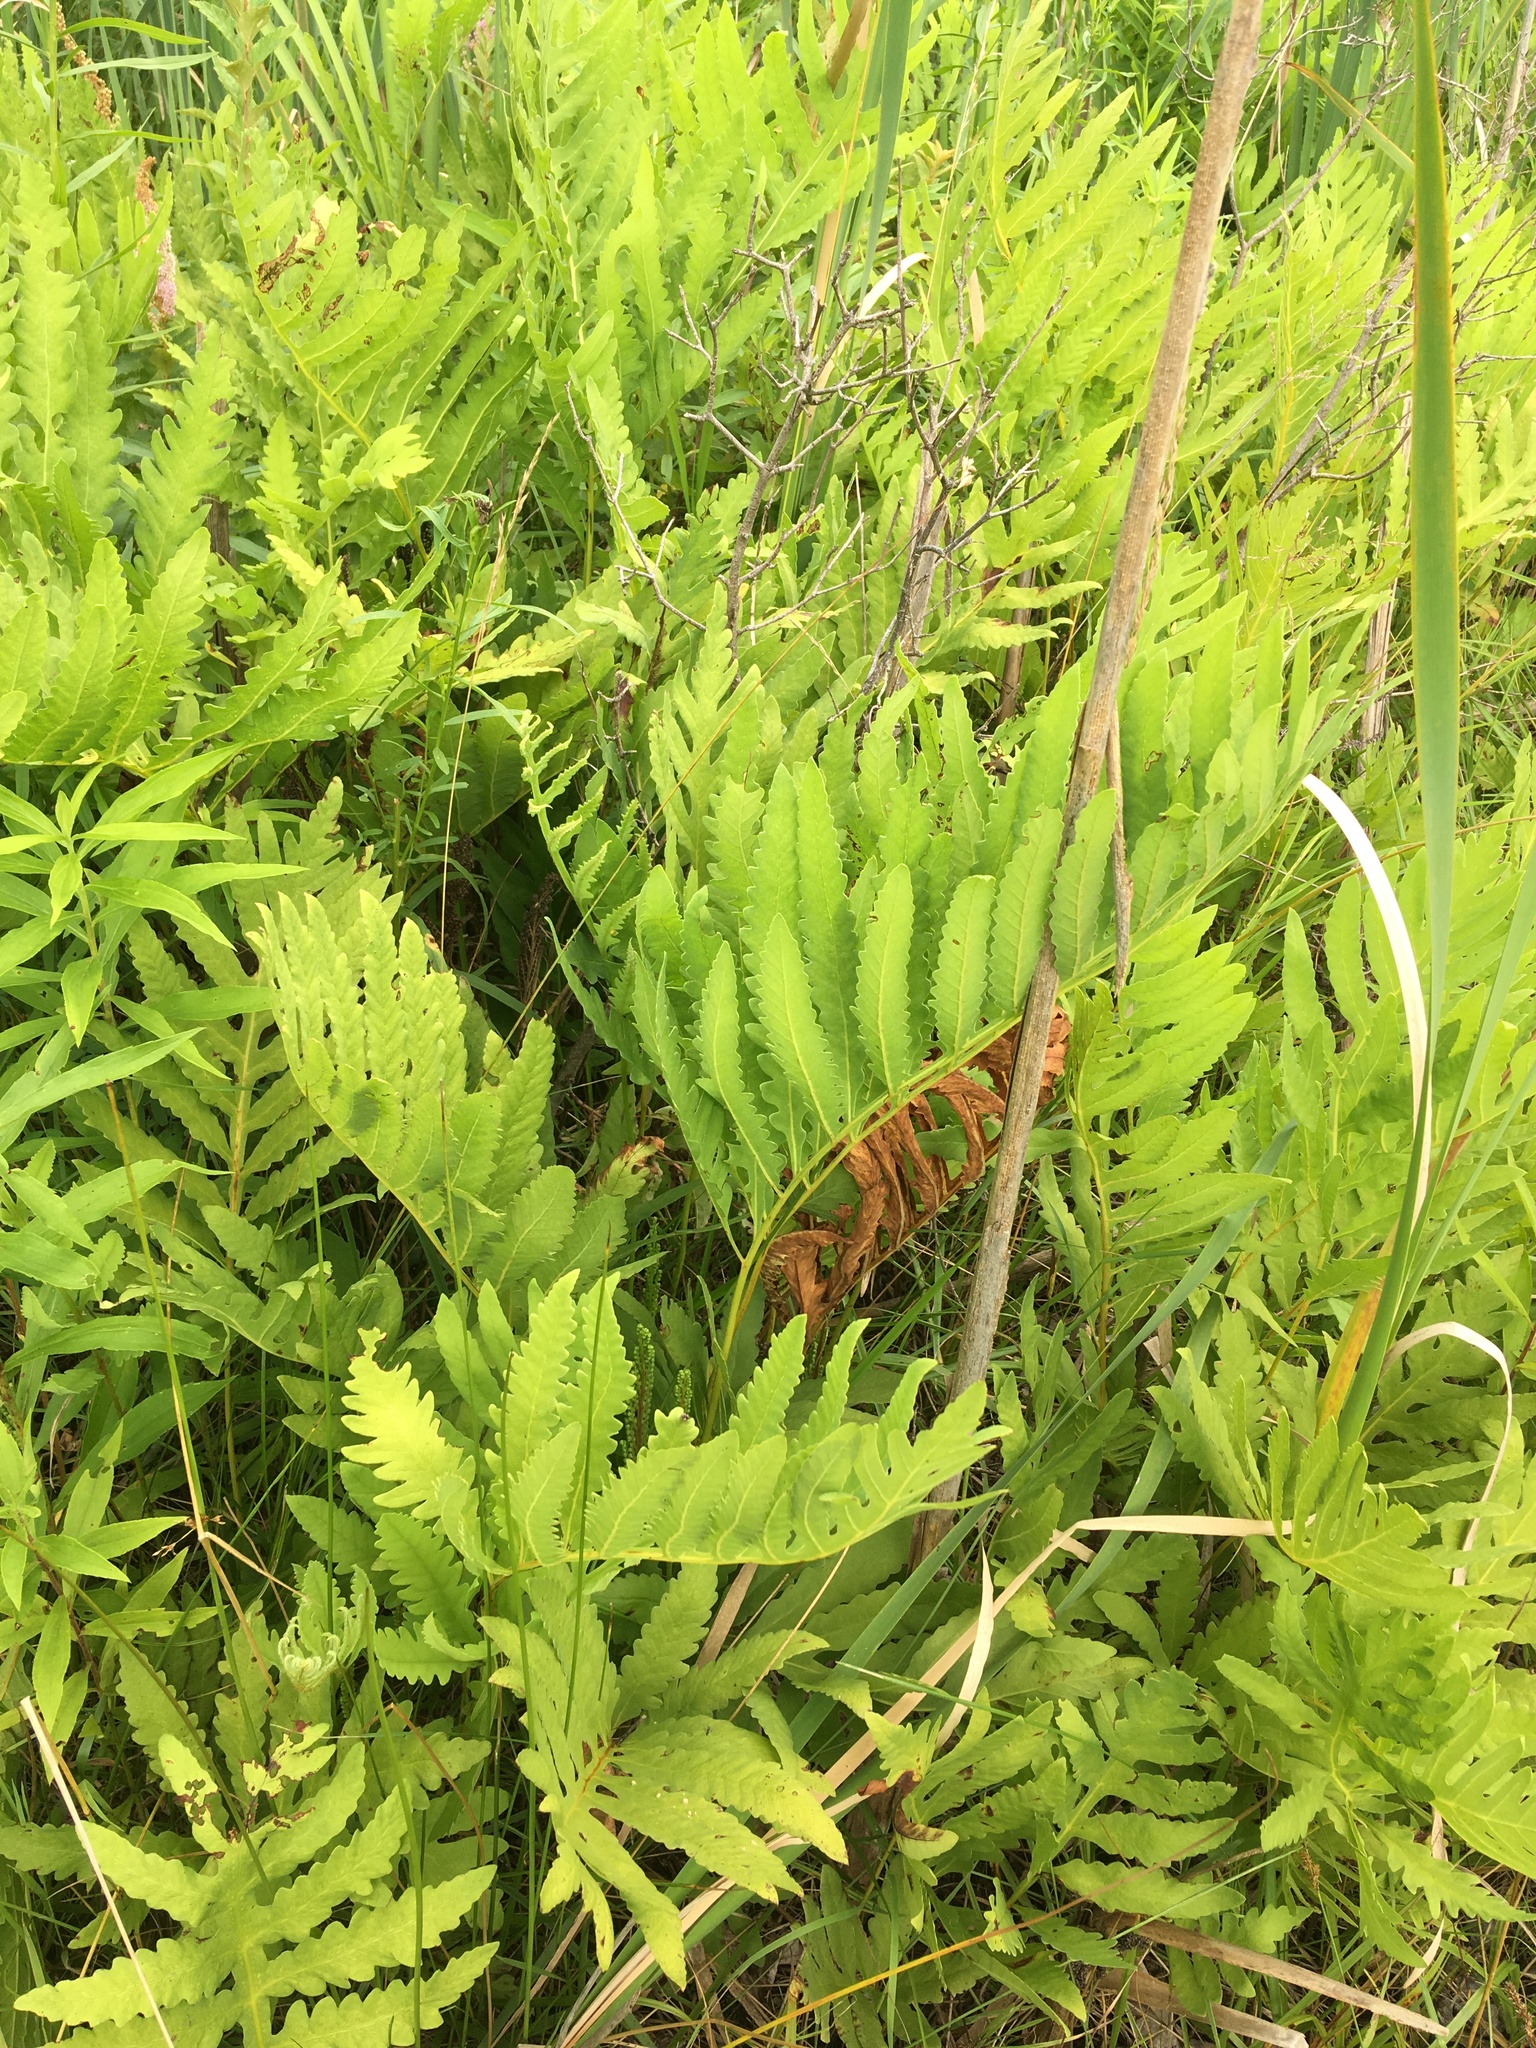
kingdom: Plantae
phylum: Tracheophyta
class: Polypodiopsida
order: Polypodiales
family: Onocleaceae
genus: Onoclea
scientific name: Onoclea sensibilis
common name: Sensitive fern
